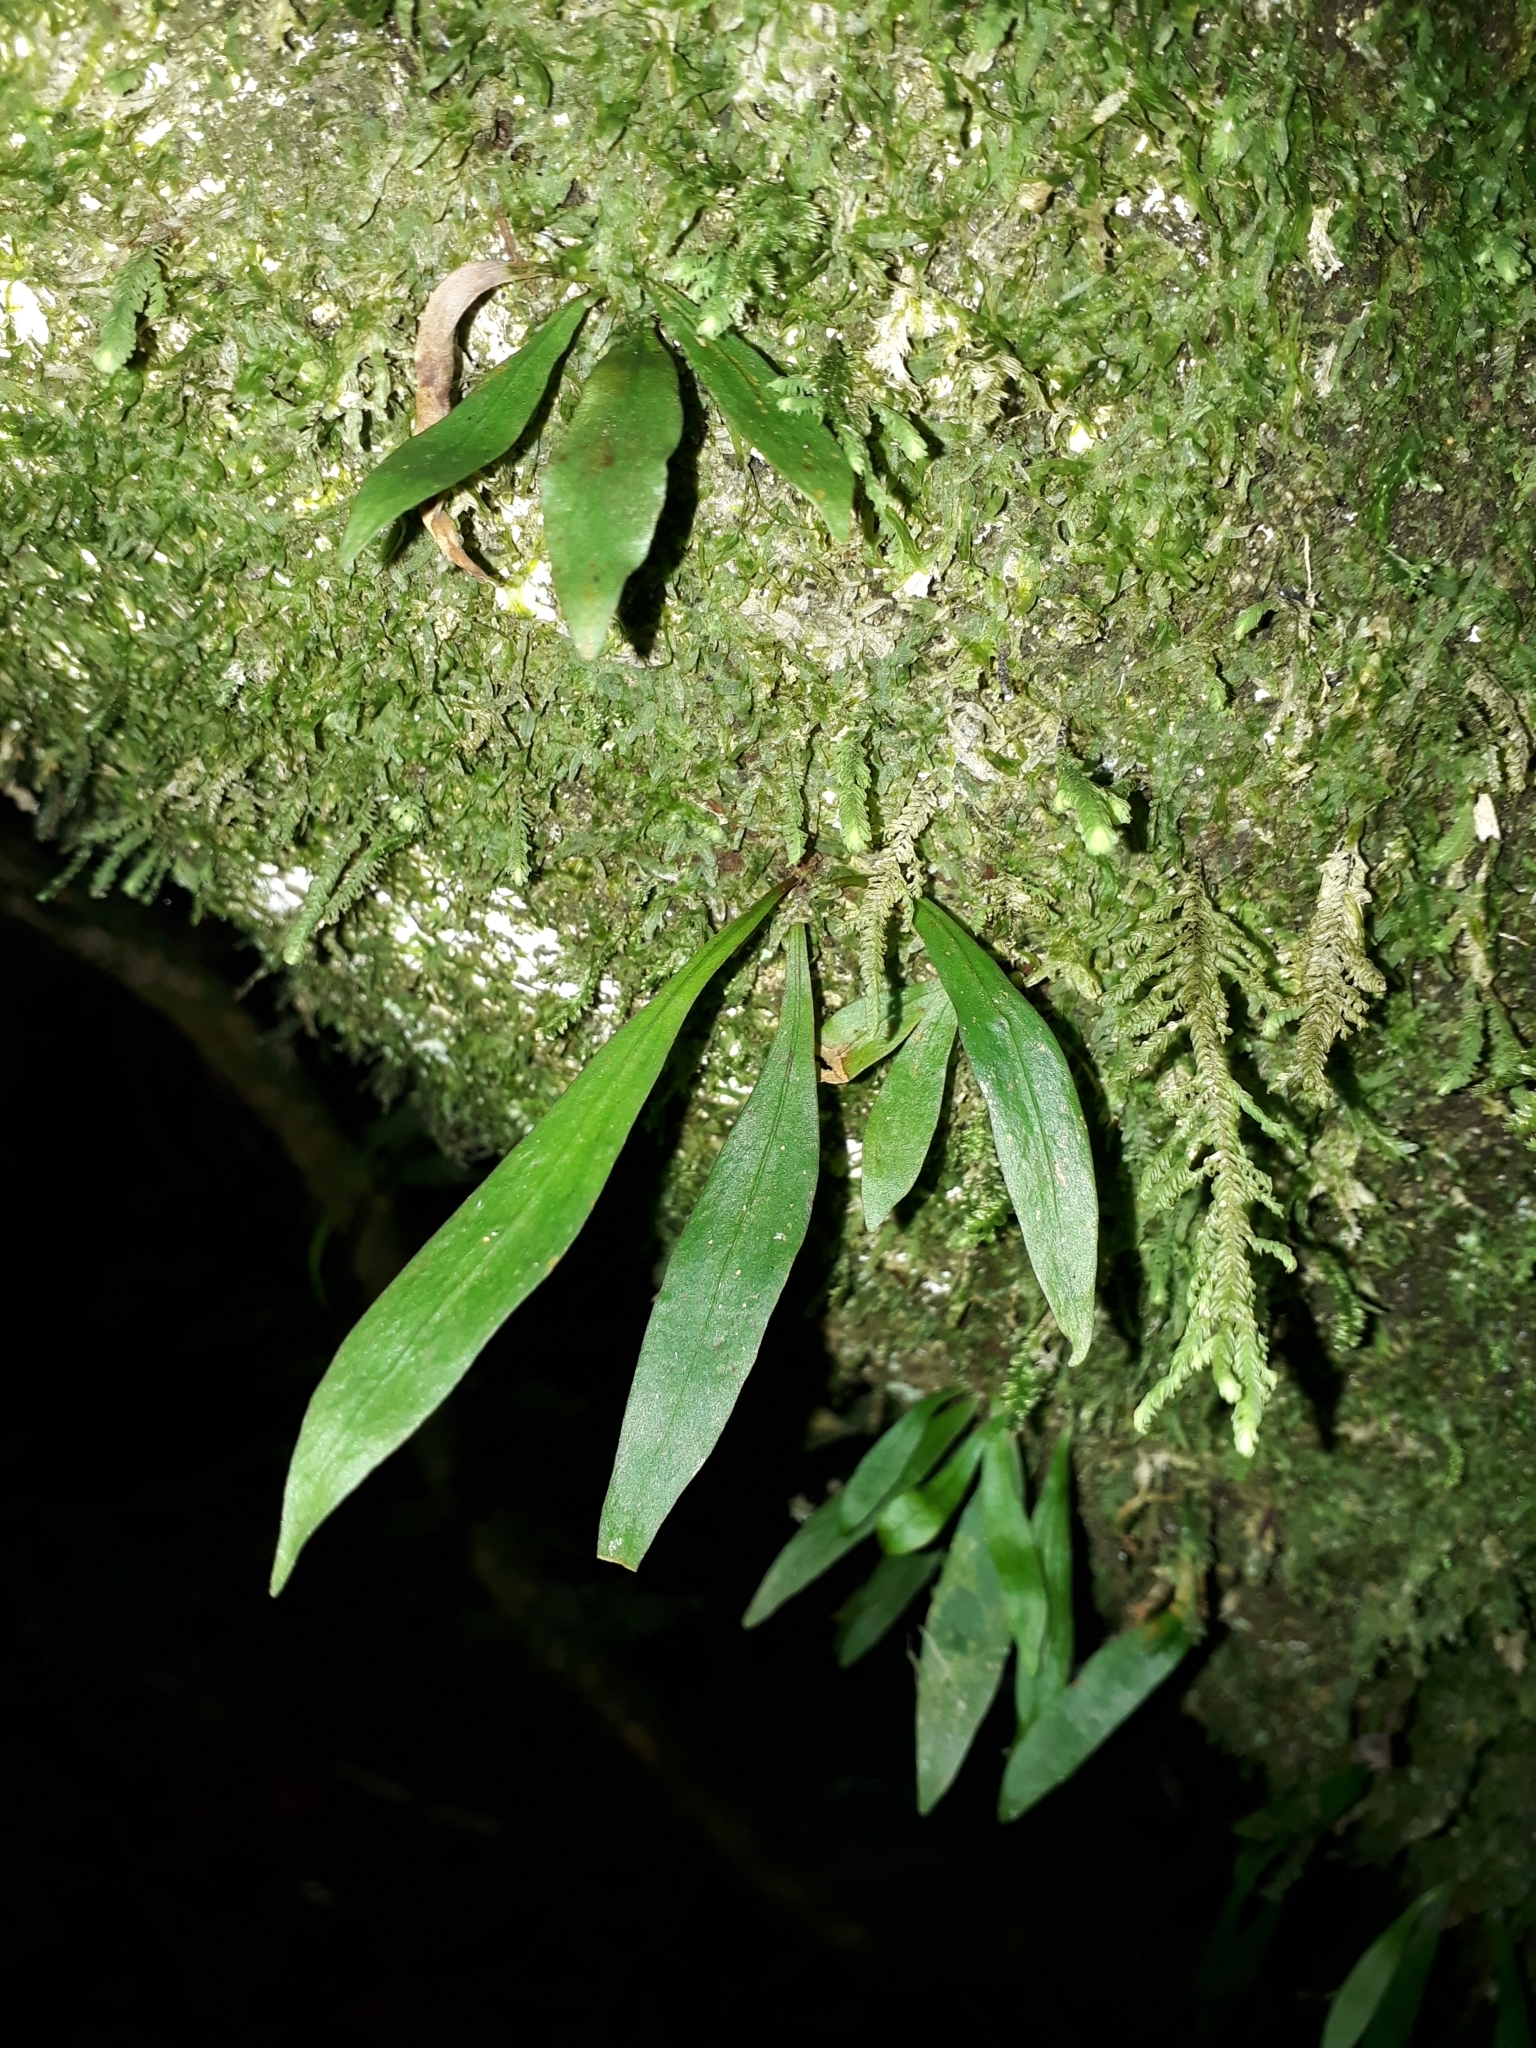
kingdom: Plantae
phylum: Tracheophyta
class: Polypodiopsida
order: Polypodiales
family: Polypodiaceae
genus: Loxogramme
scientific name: Loxogramme dictyopteris
